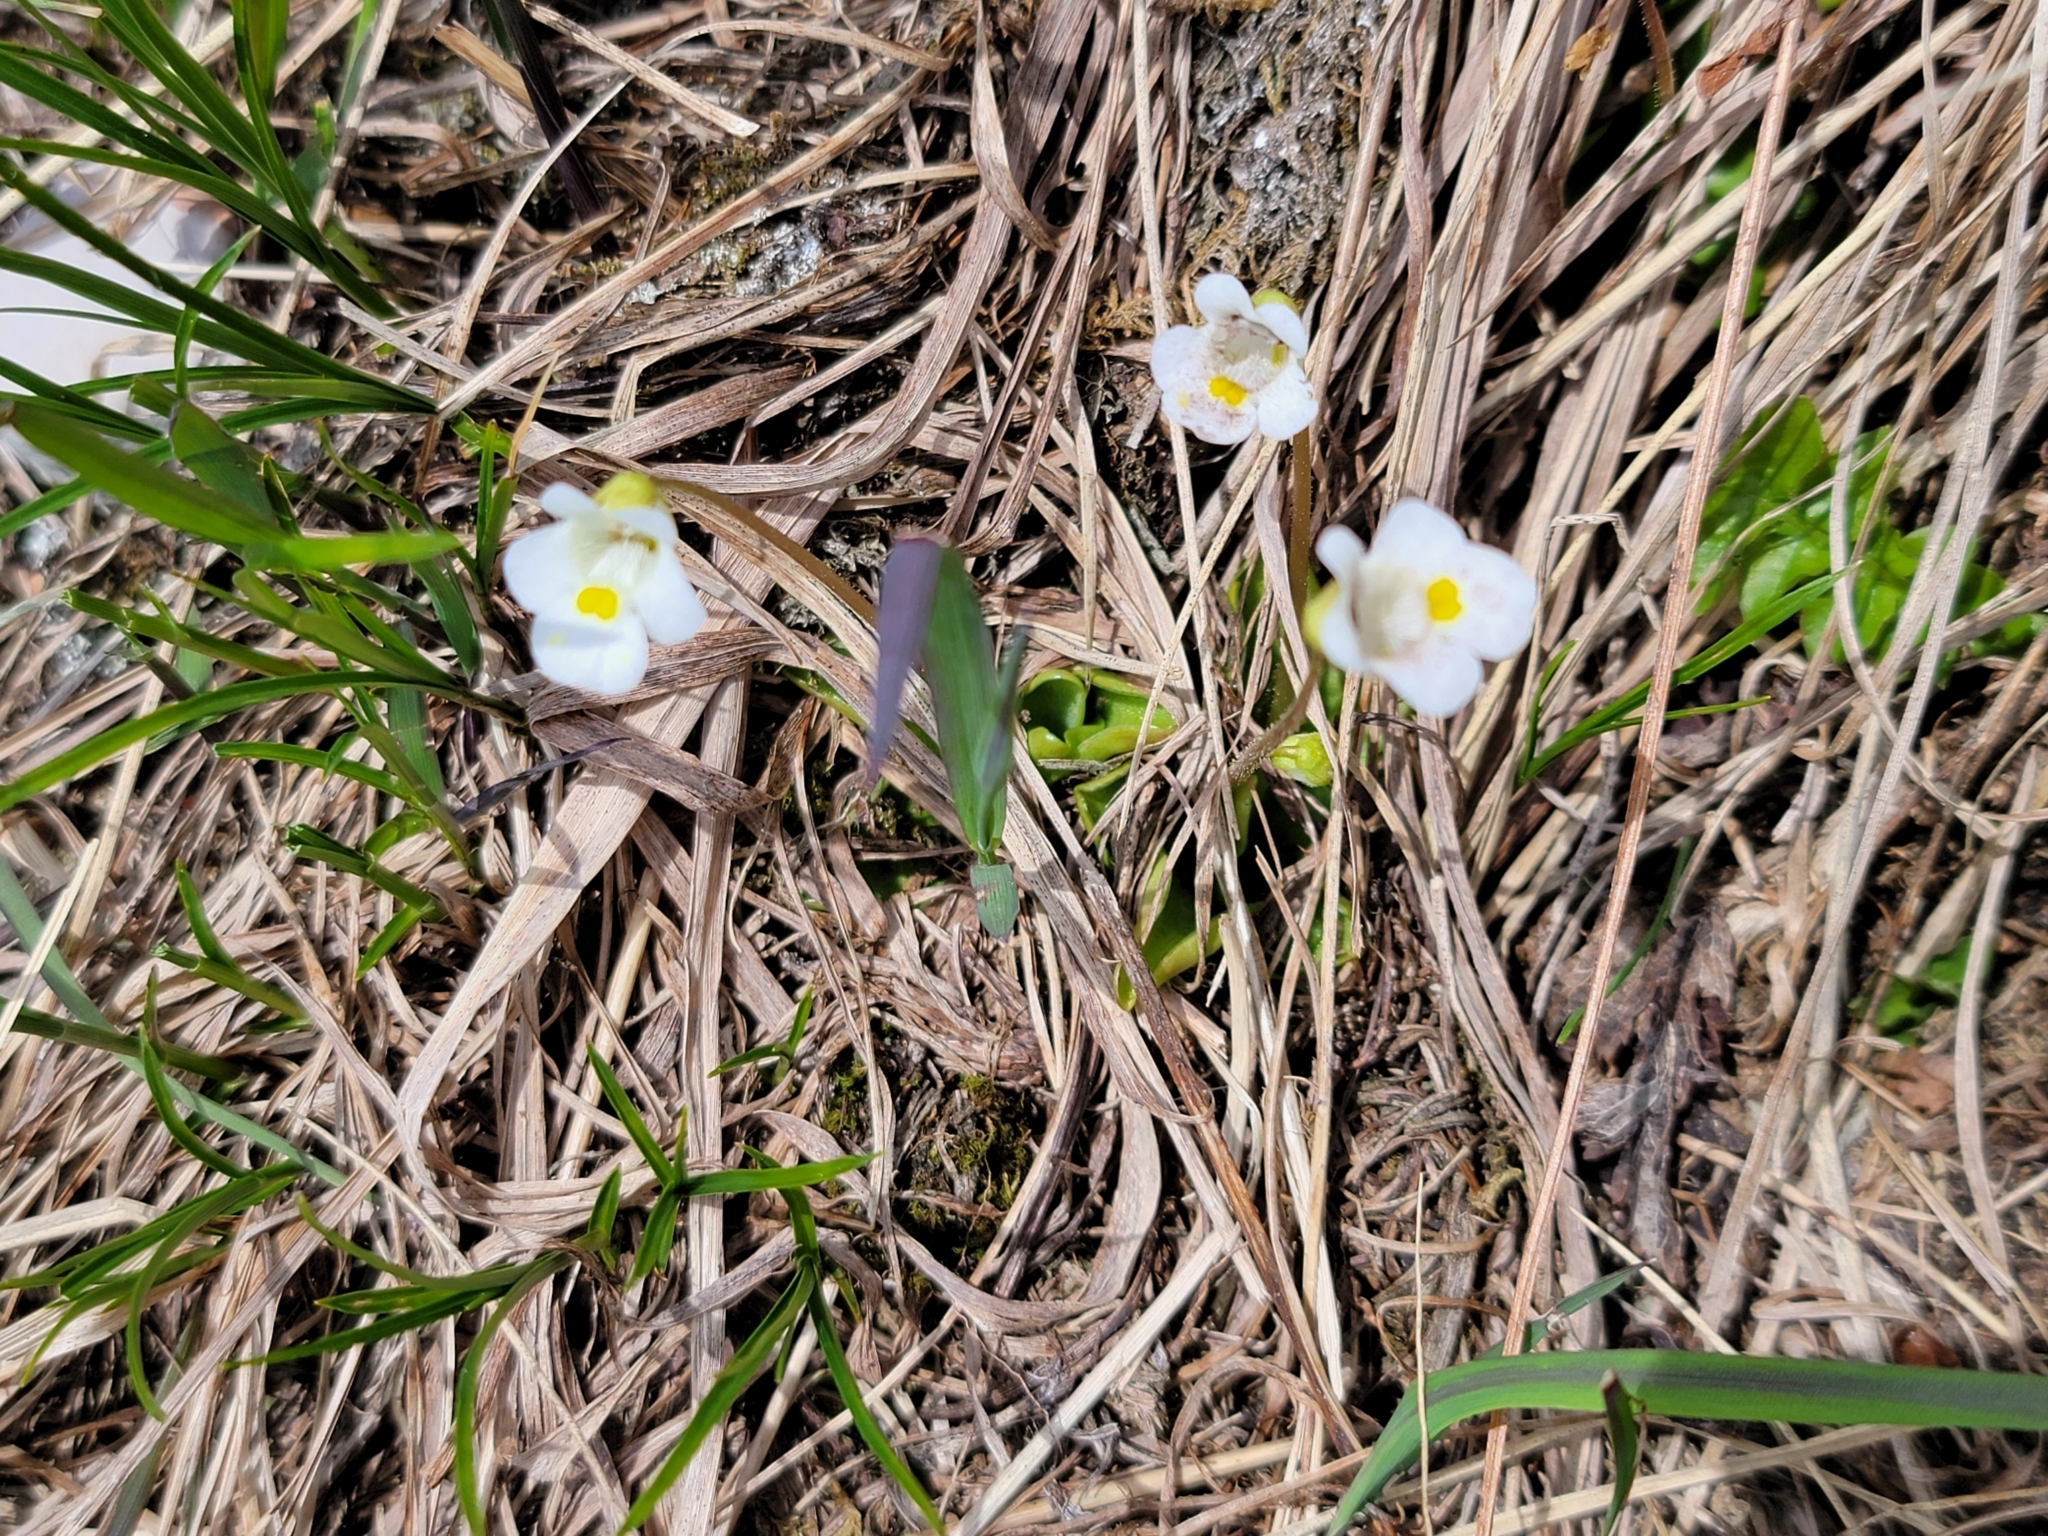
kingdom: Plantae
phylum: Tracheophyta
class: Magnoliopsida
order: Lamiales
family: Lentibulariaceae
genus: Pinguicula
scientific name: Pinguicula alpina
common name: Alpine butterwort
